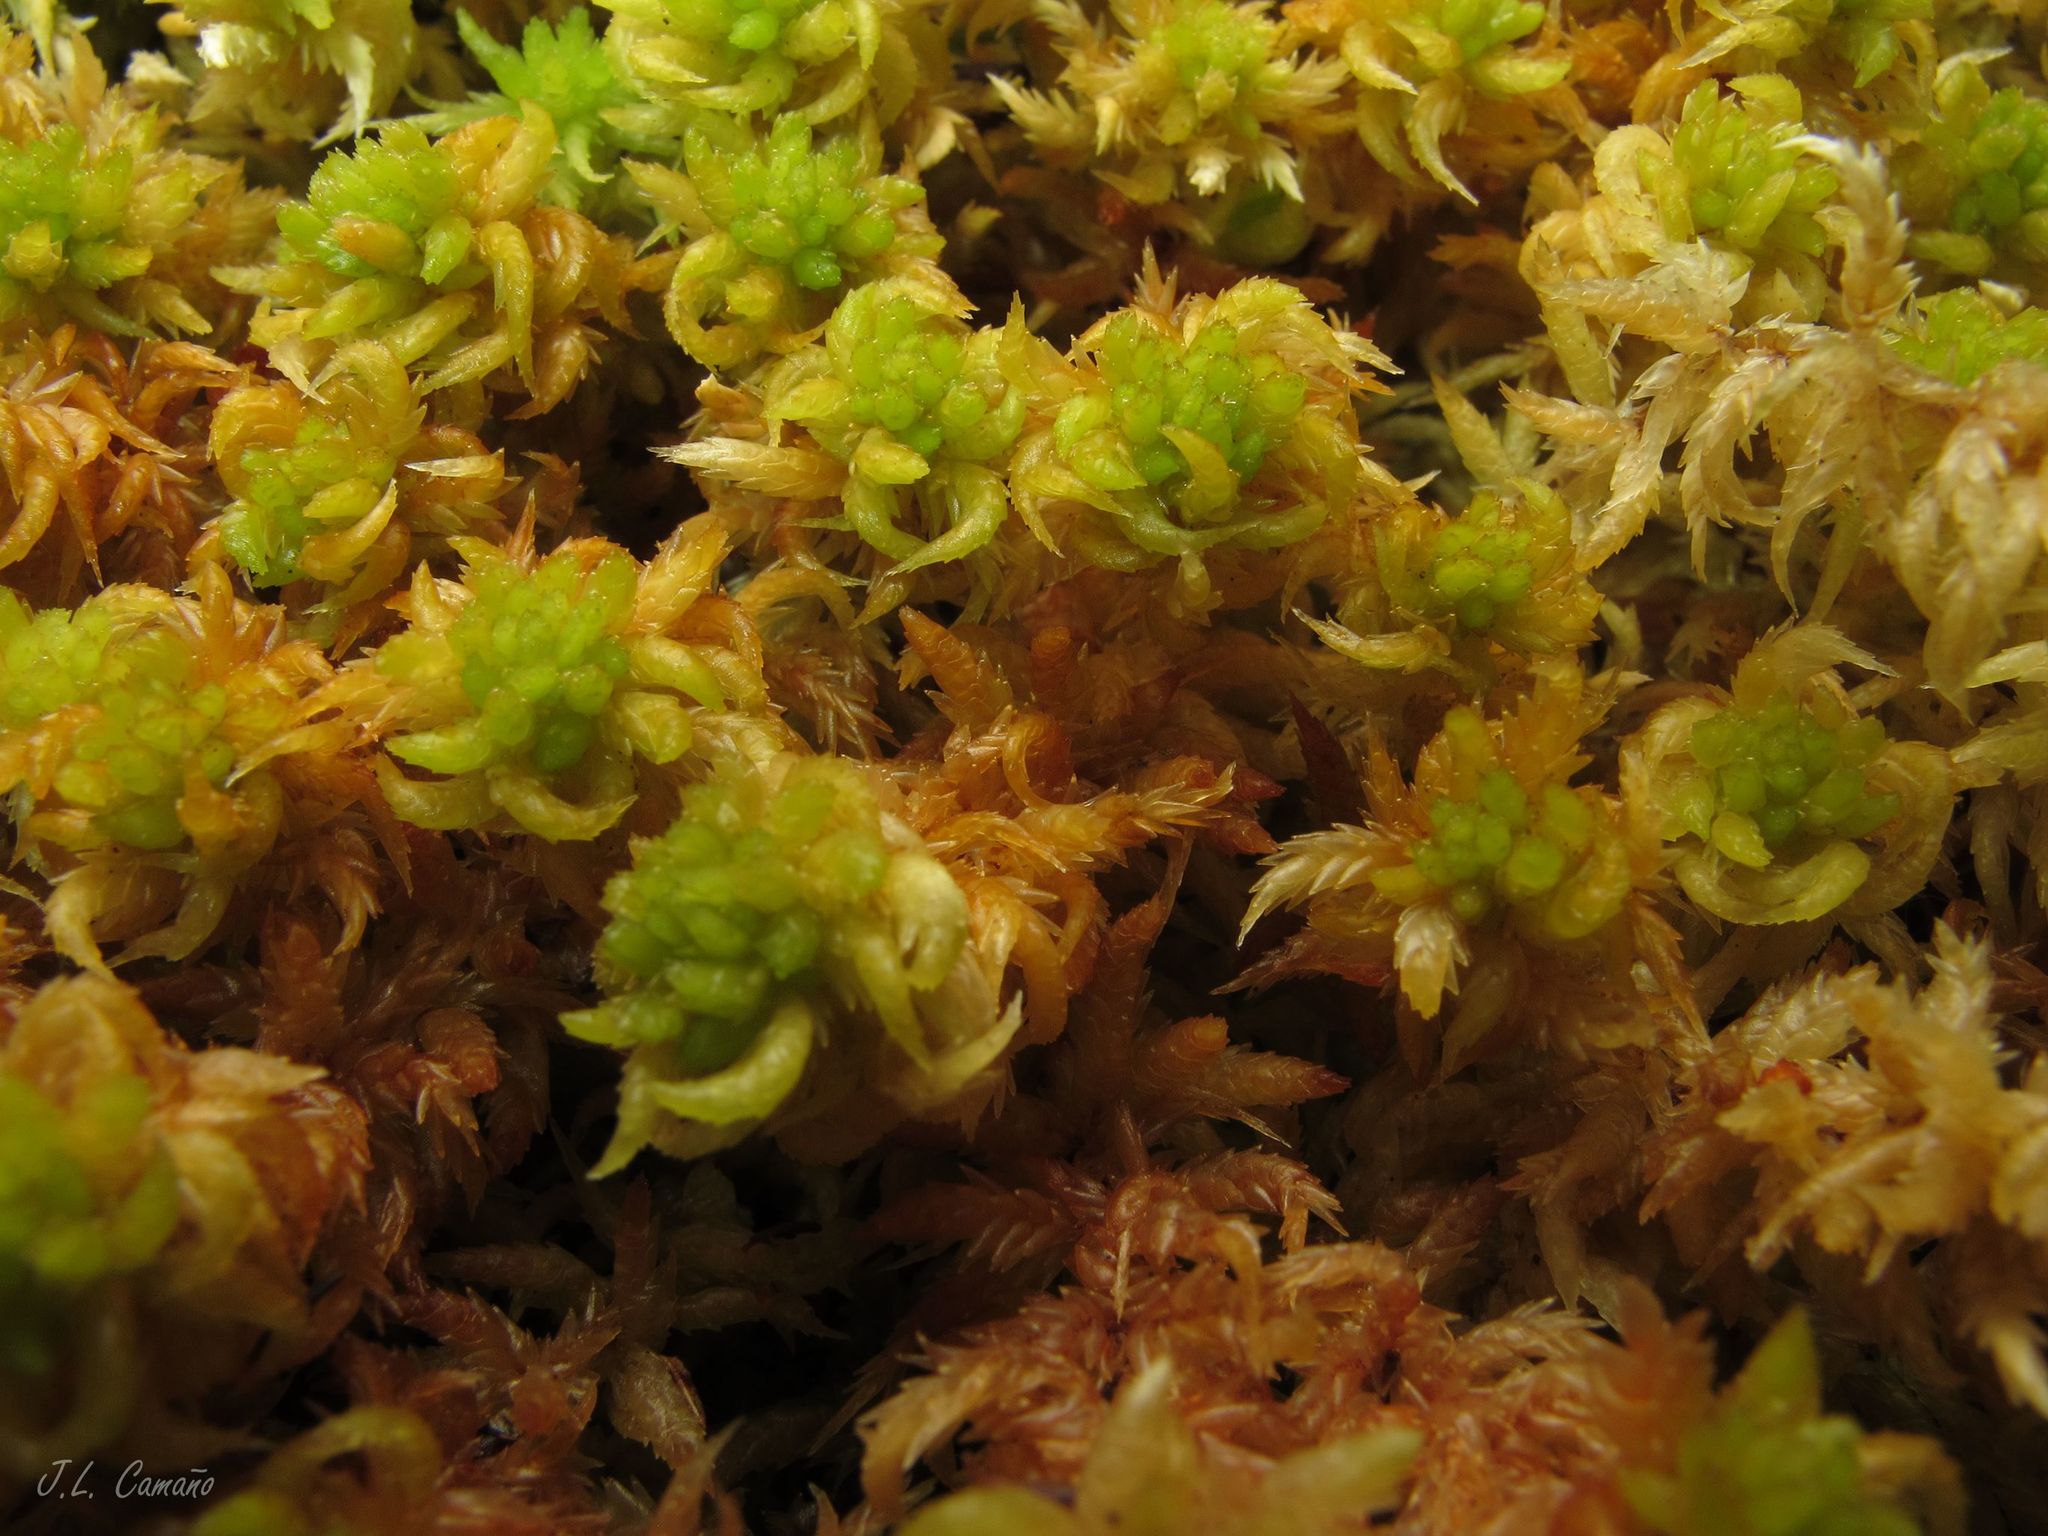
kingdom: Plantae
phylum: Bryophyta
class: Sphagnopsida
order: Sphagnales
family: Sphagnaceae
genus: Sphagnum
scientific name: Sphagnum denticulatum
